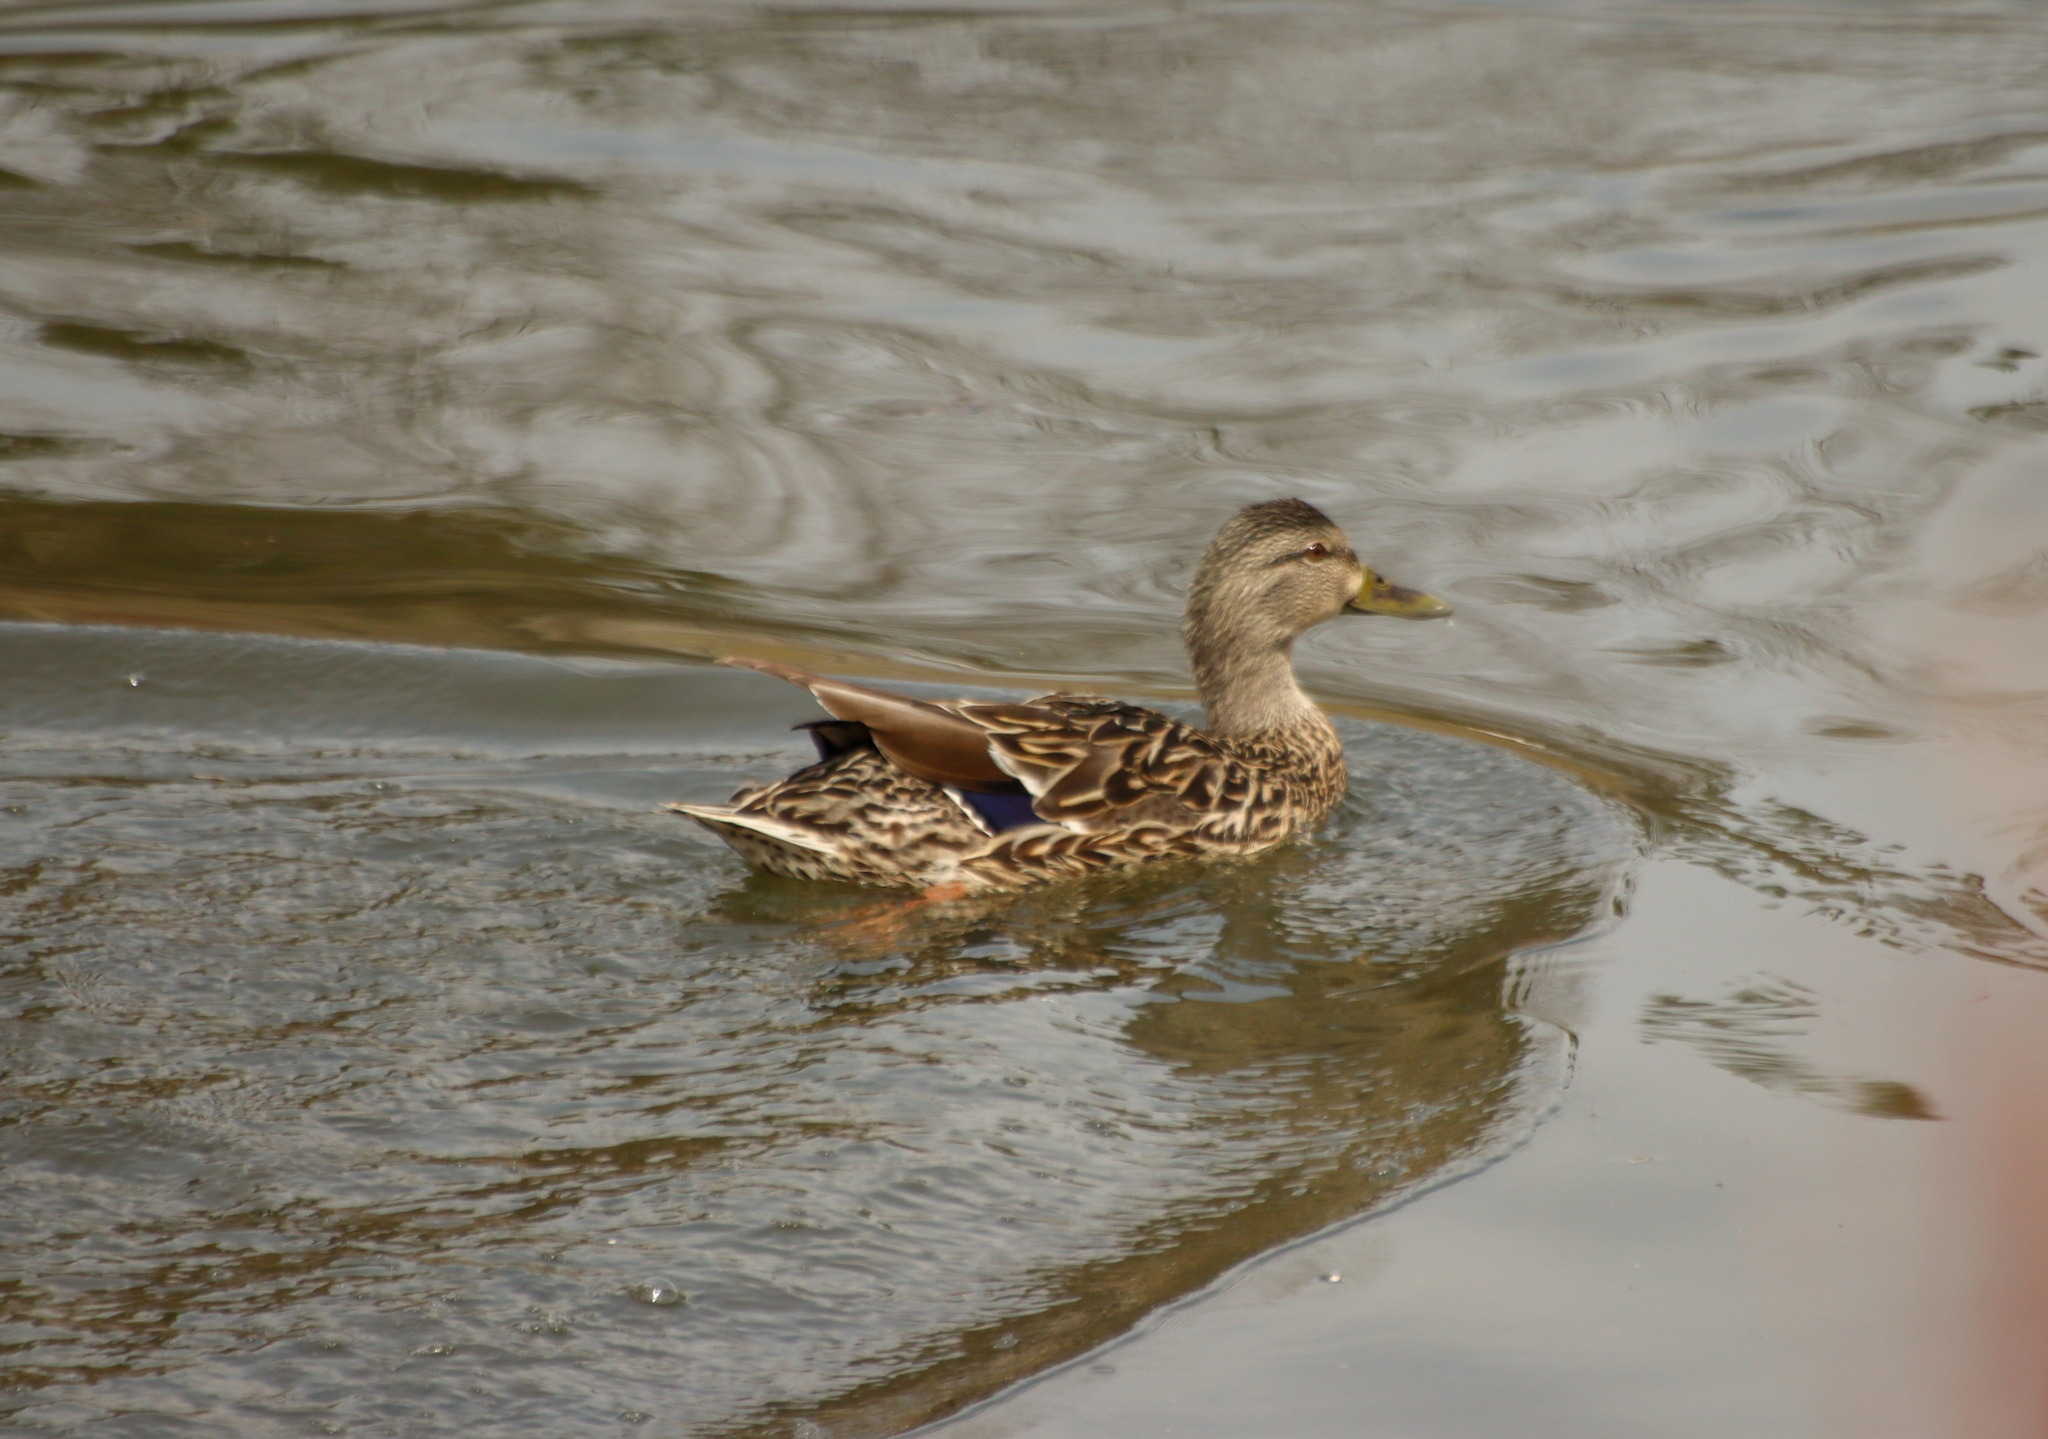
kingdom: Animalia
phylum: Chordata
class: Aves
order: Anseriformes
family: Anatidae
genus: Anas
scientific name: Anas platyrhynchos
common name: Mallard
